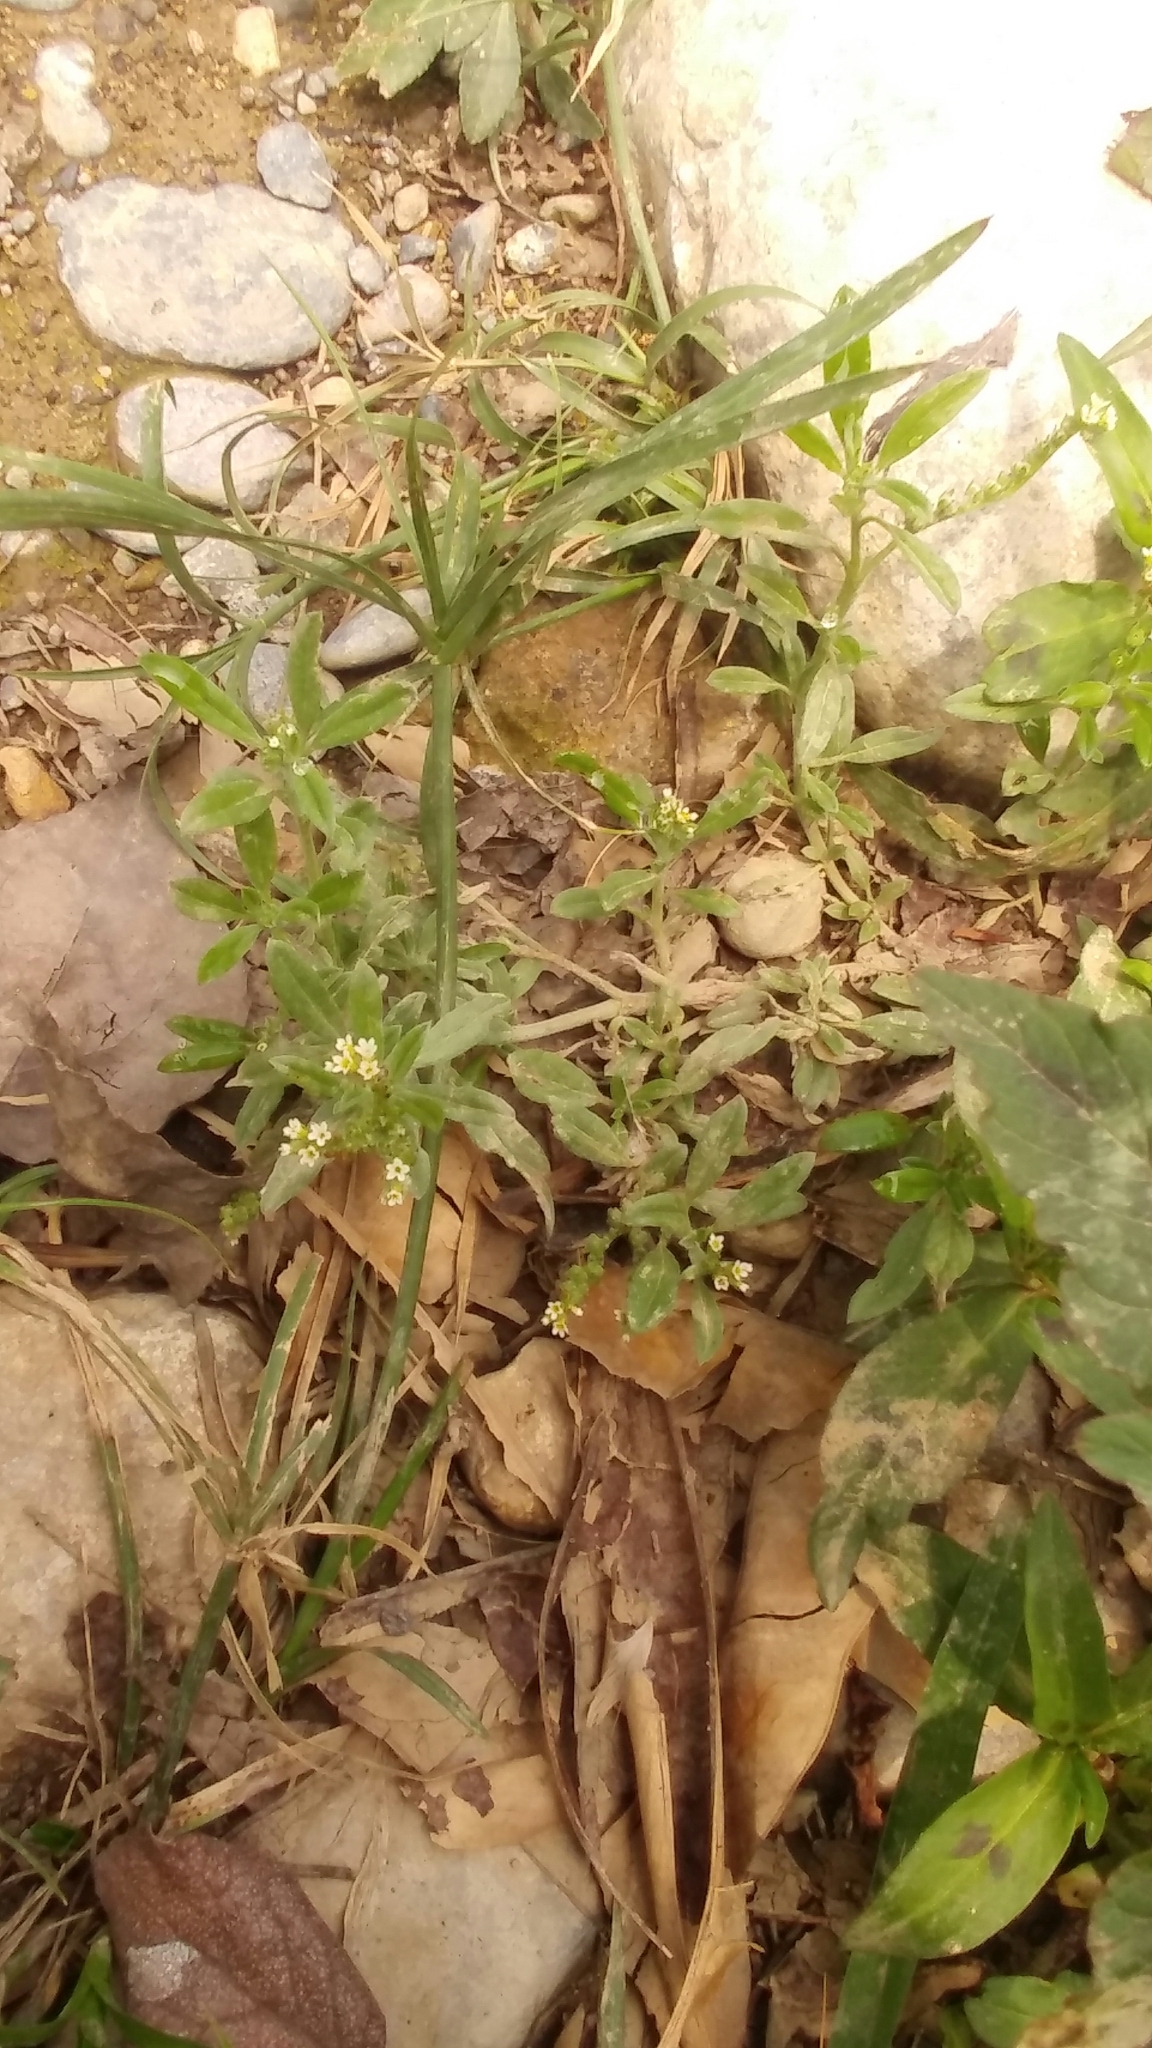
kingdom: Plantae
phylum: Tracheophyta
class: Magnoliopsida
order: Boraginales
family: Heliotropiaceae
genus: Euploca
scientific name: Euploca procumbens
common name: Fourspike heliotrope
